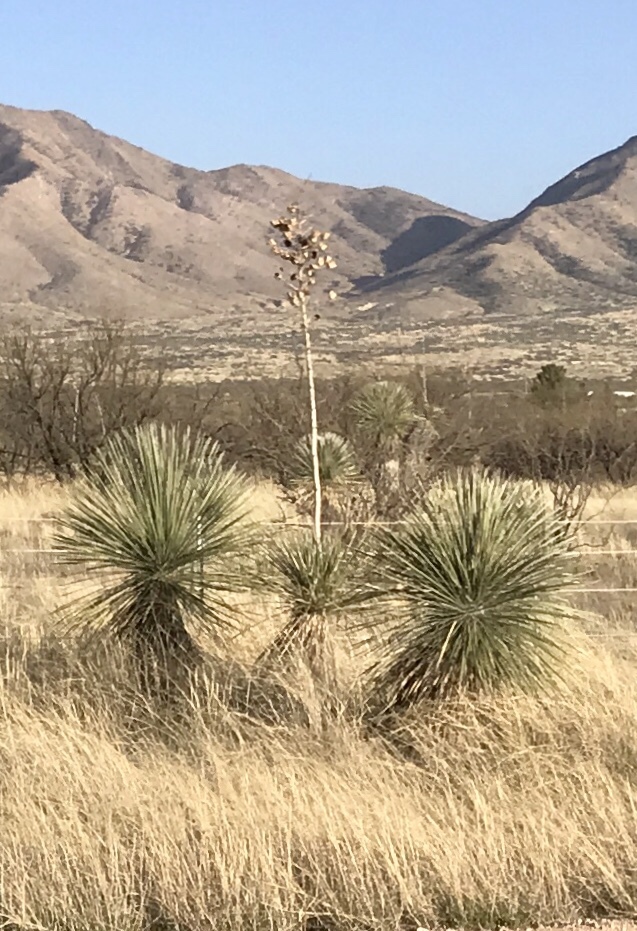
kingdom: Plantae
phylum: Tracheophyta
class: Liliopsida
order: Asparagales
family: Asparagaceae
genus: Yucca
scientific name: Yucca elata
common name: Palmella
